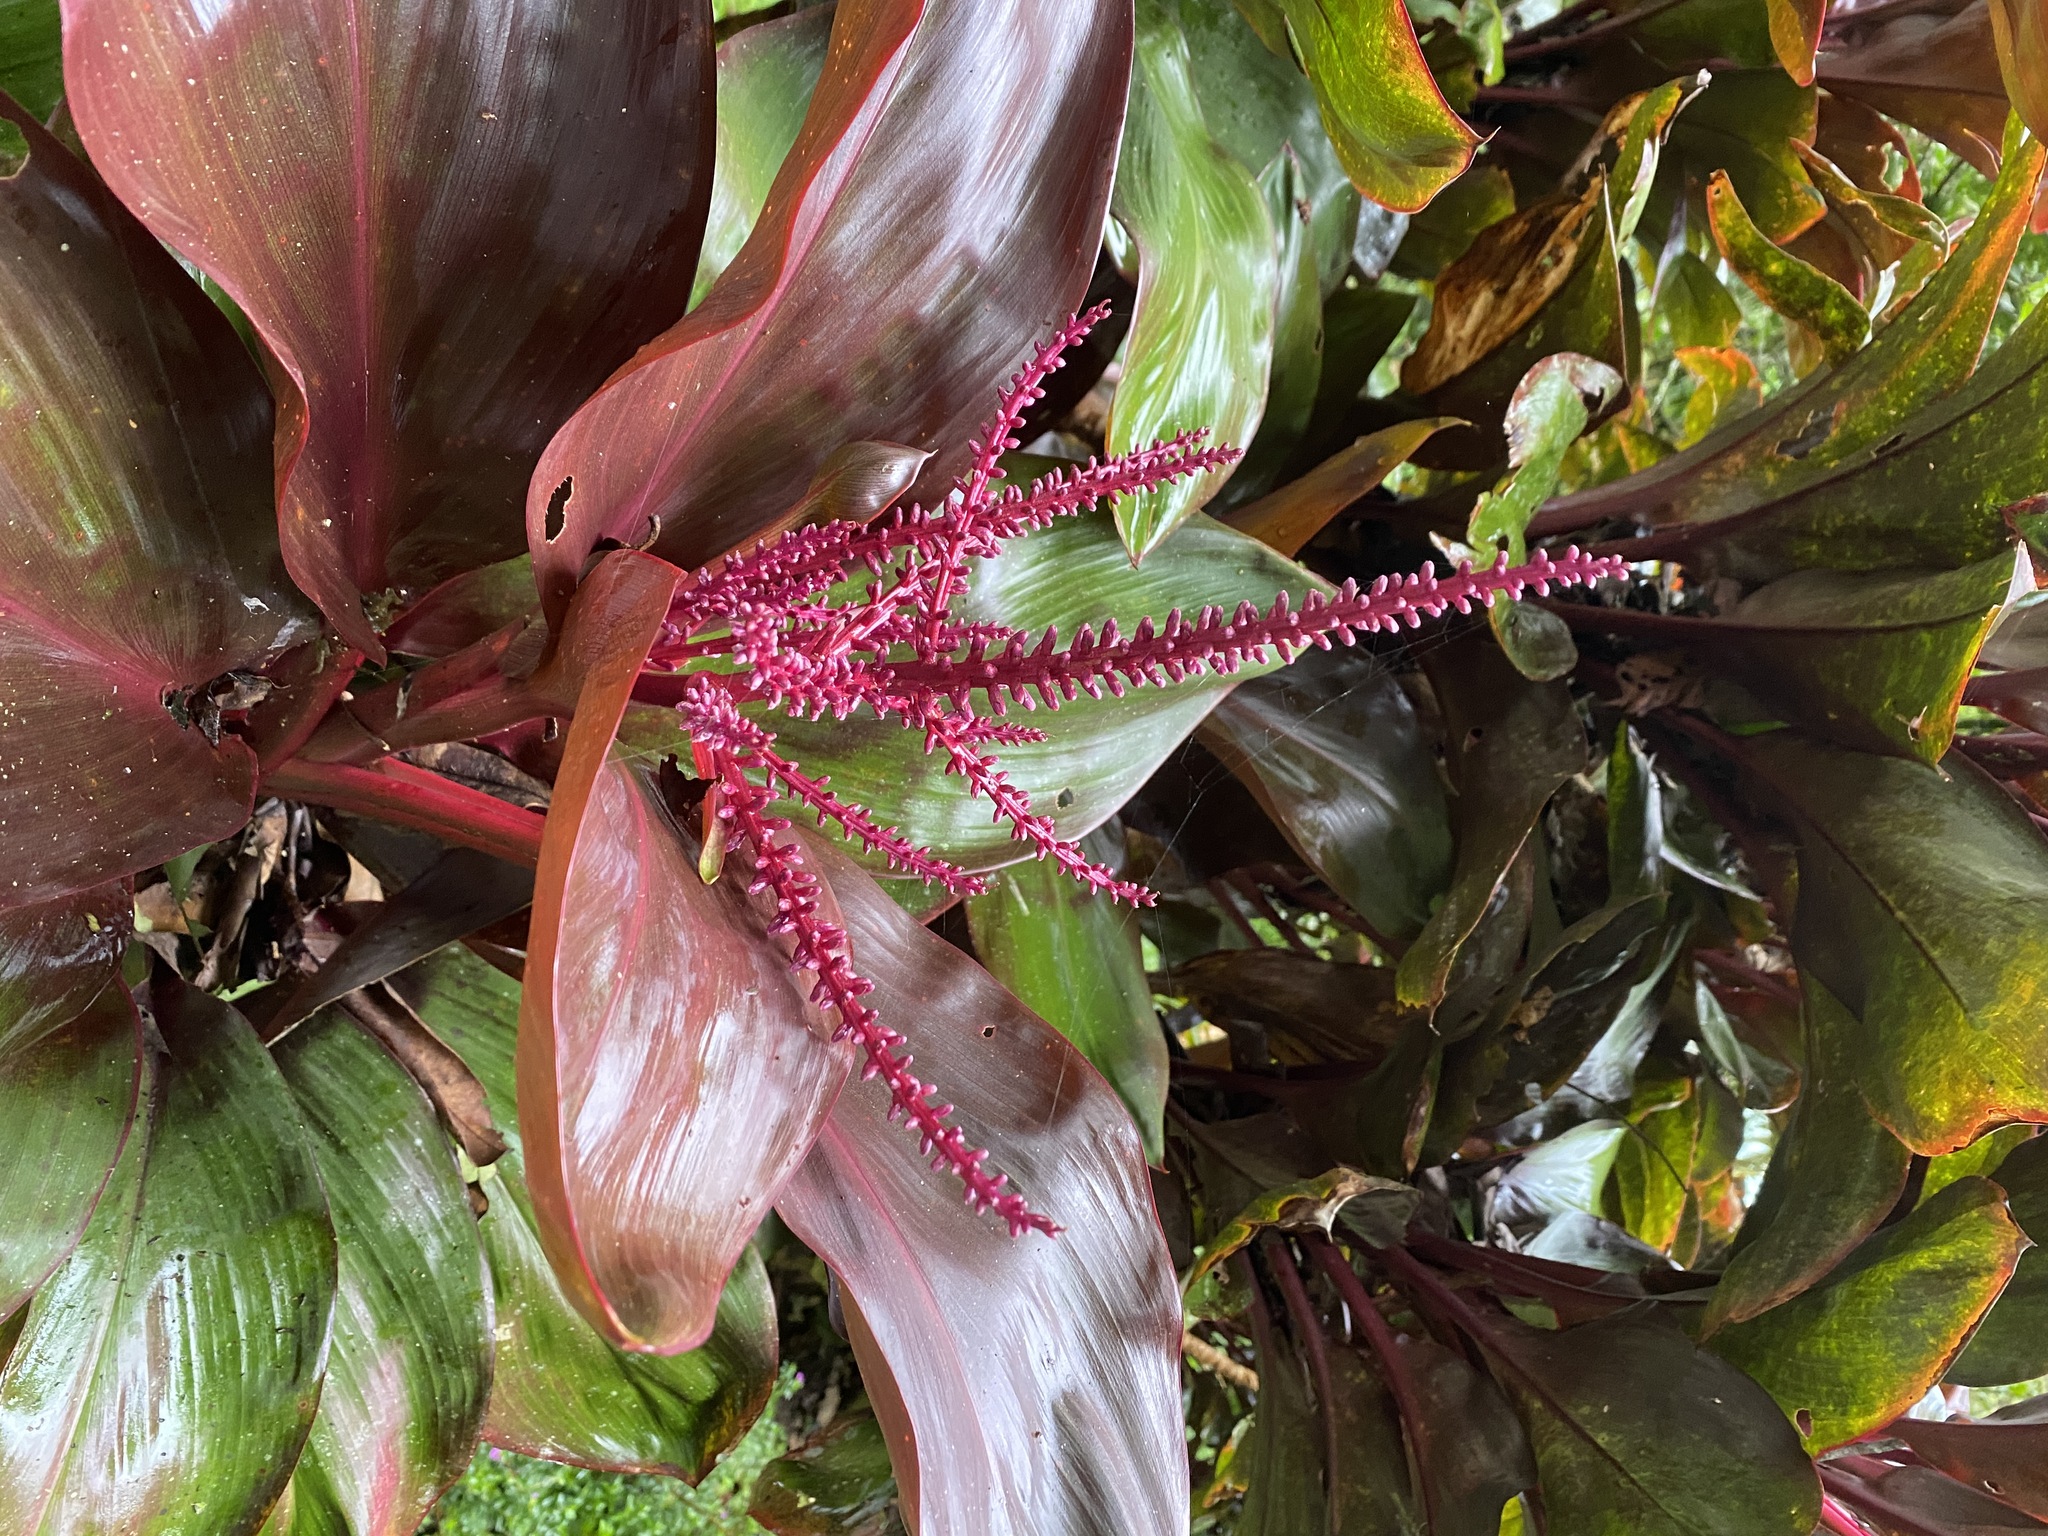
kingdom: Plantae
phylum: Tracheophyta
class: Liliopsida
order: Asparagales
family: Asparagaceae
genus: Cordyline
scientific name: Cordyline fruticosa
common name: Good-luck-plant
